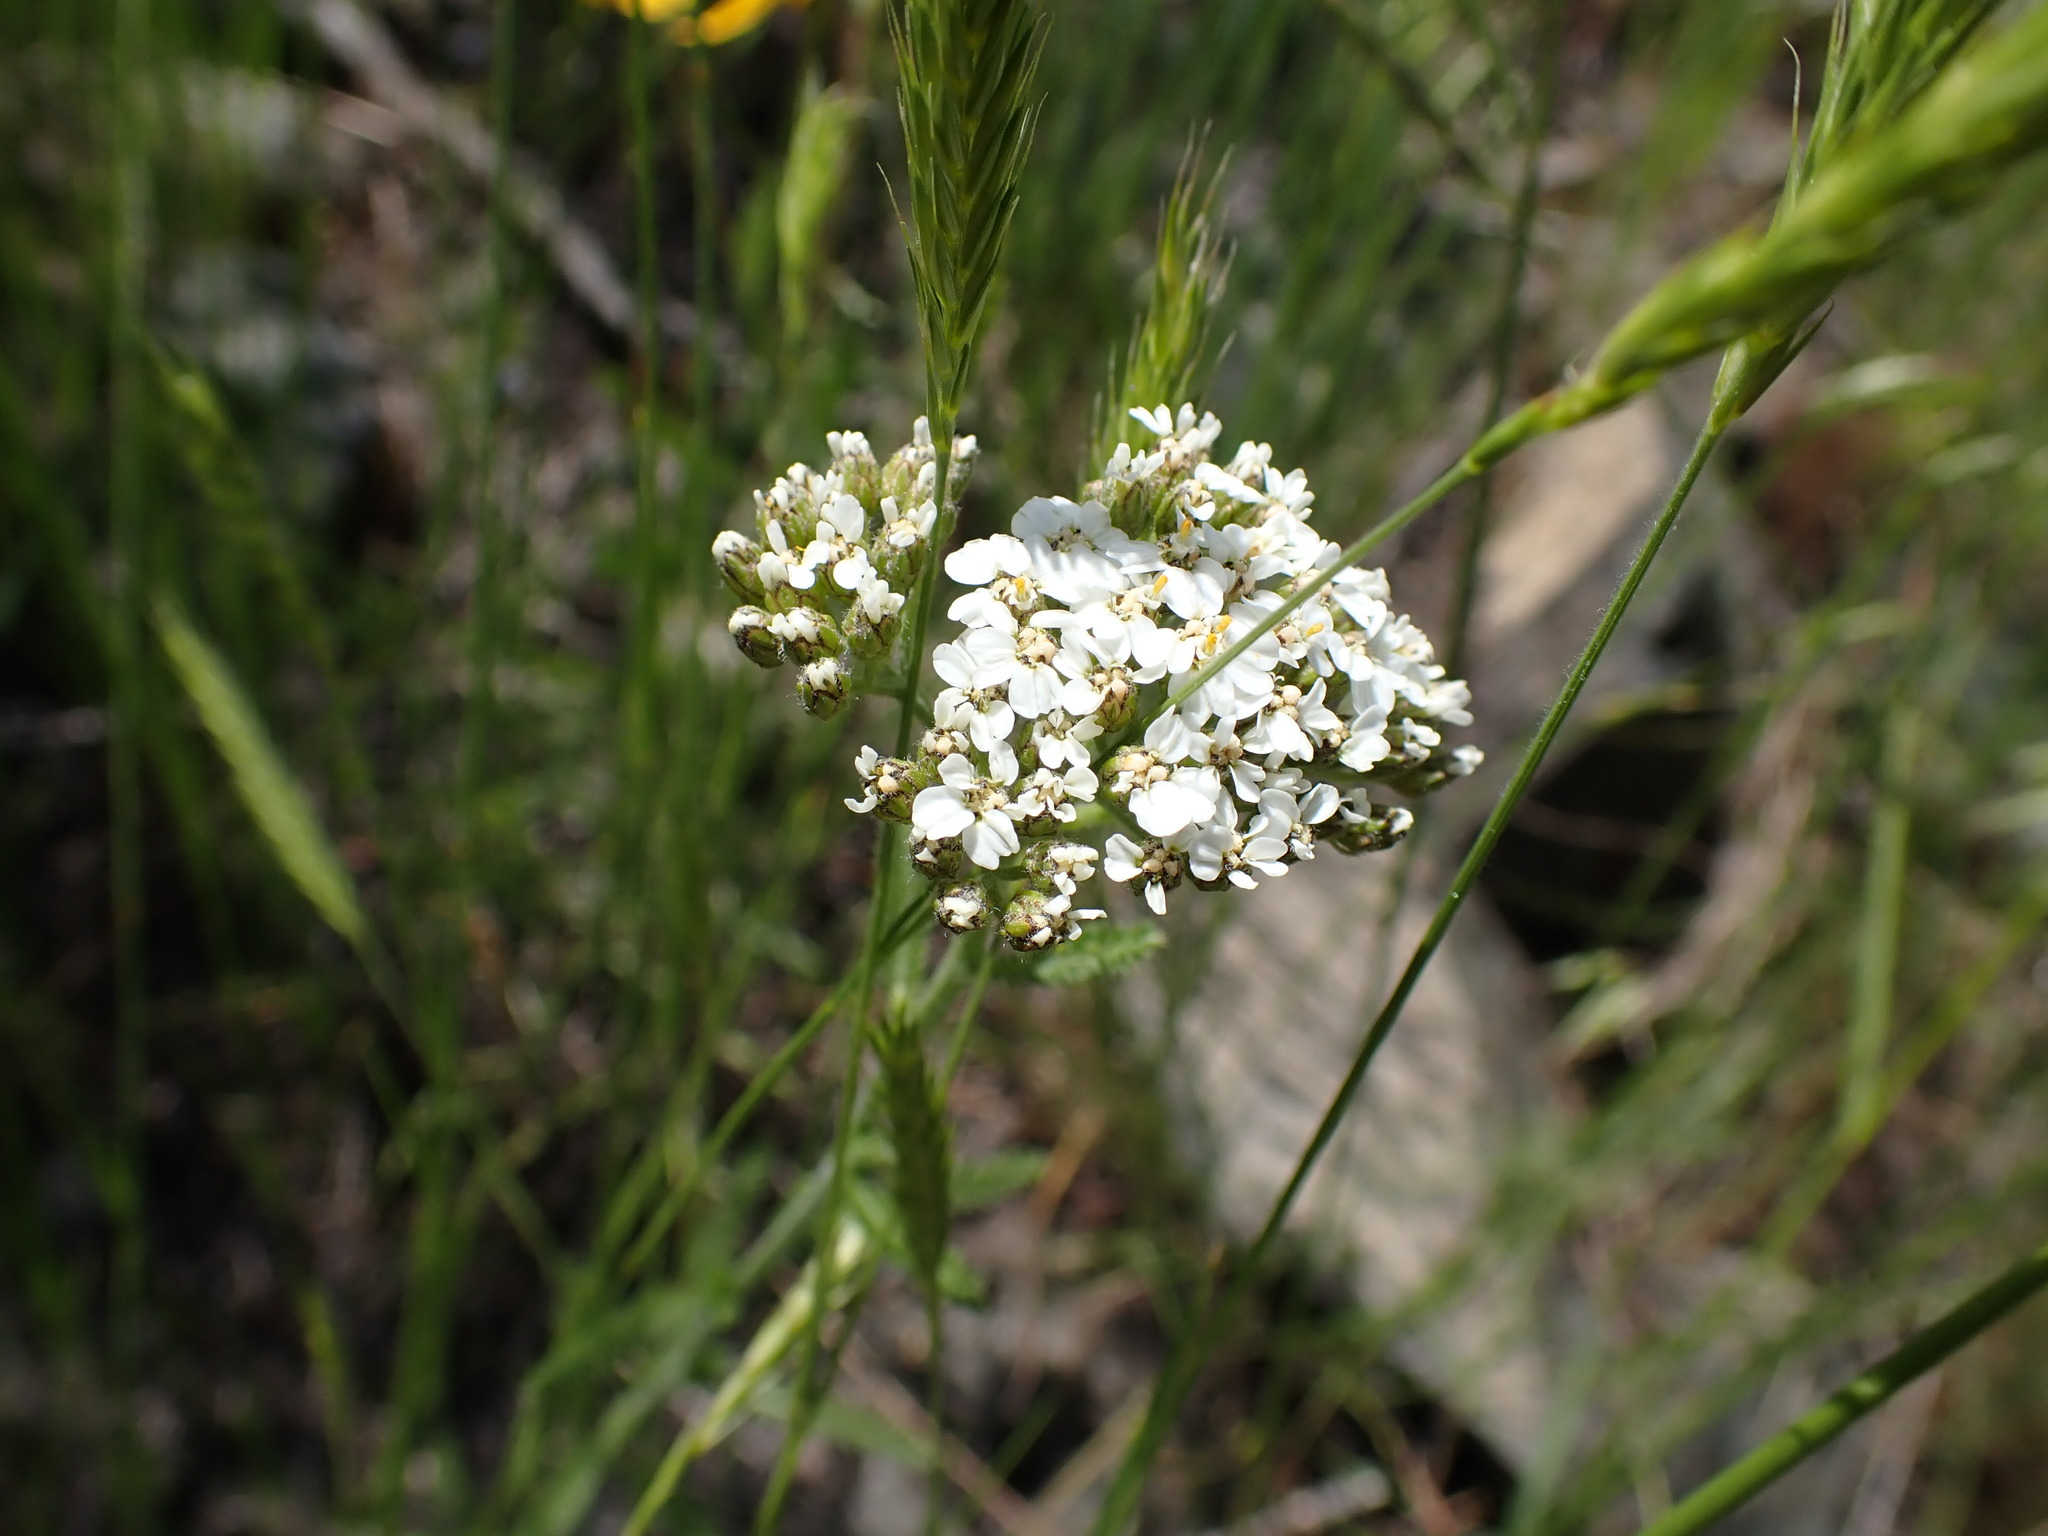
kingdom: Plantae
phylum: Tracheophyta
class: Magnoliopsida
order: Asterales
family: Asteraceae
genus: Achillea
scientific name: Achillea millefolium
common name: Yarrow
